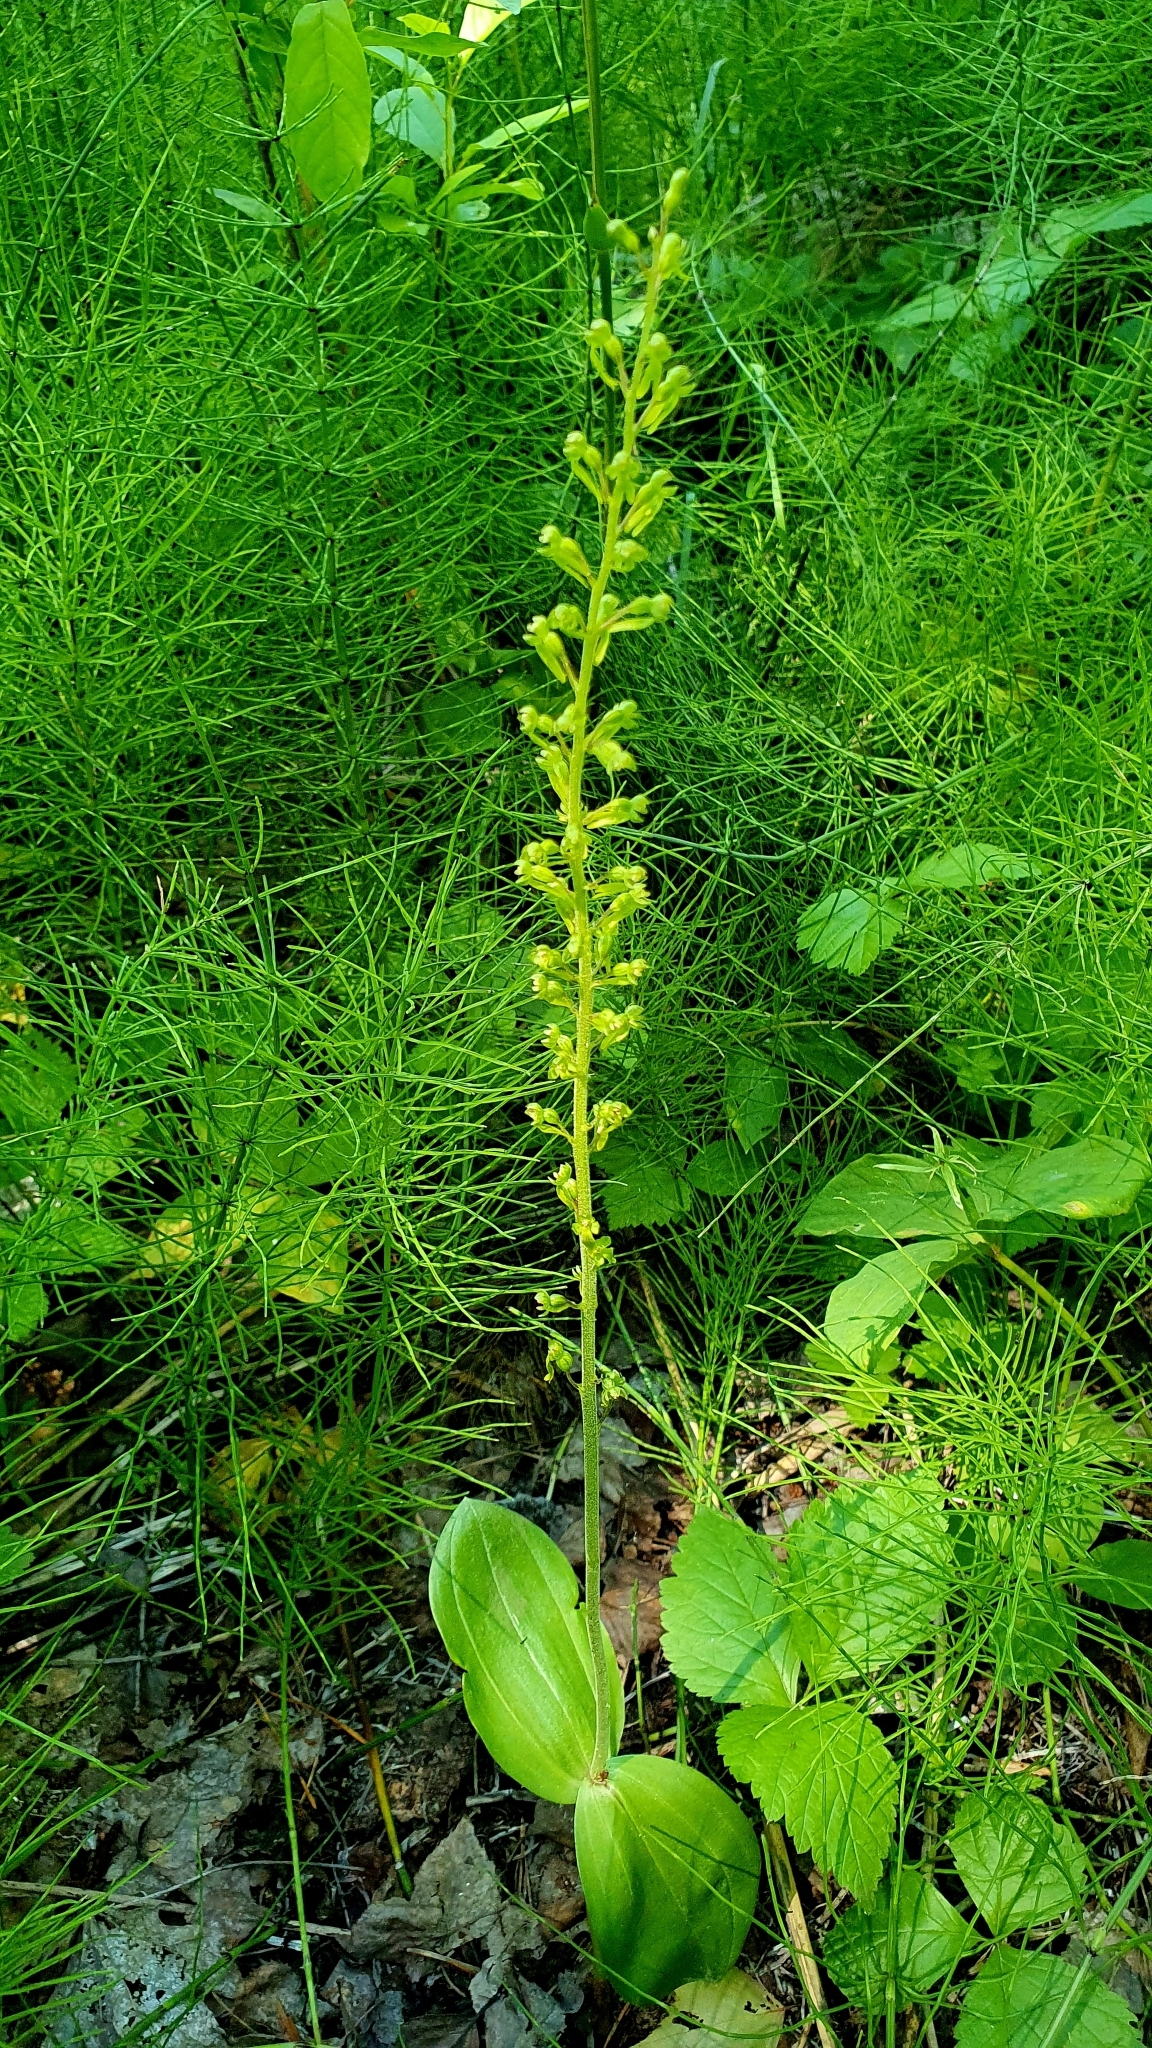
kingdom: Plantae
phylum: Tracheophyta
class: Liliopsida
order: Asparagales
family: Orchidaceae
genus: Neottia
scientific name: Neottia ovata
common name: Common twayblade
